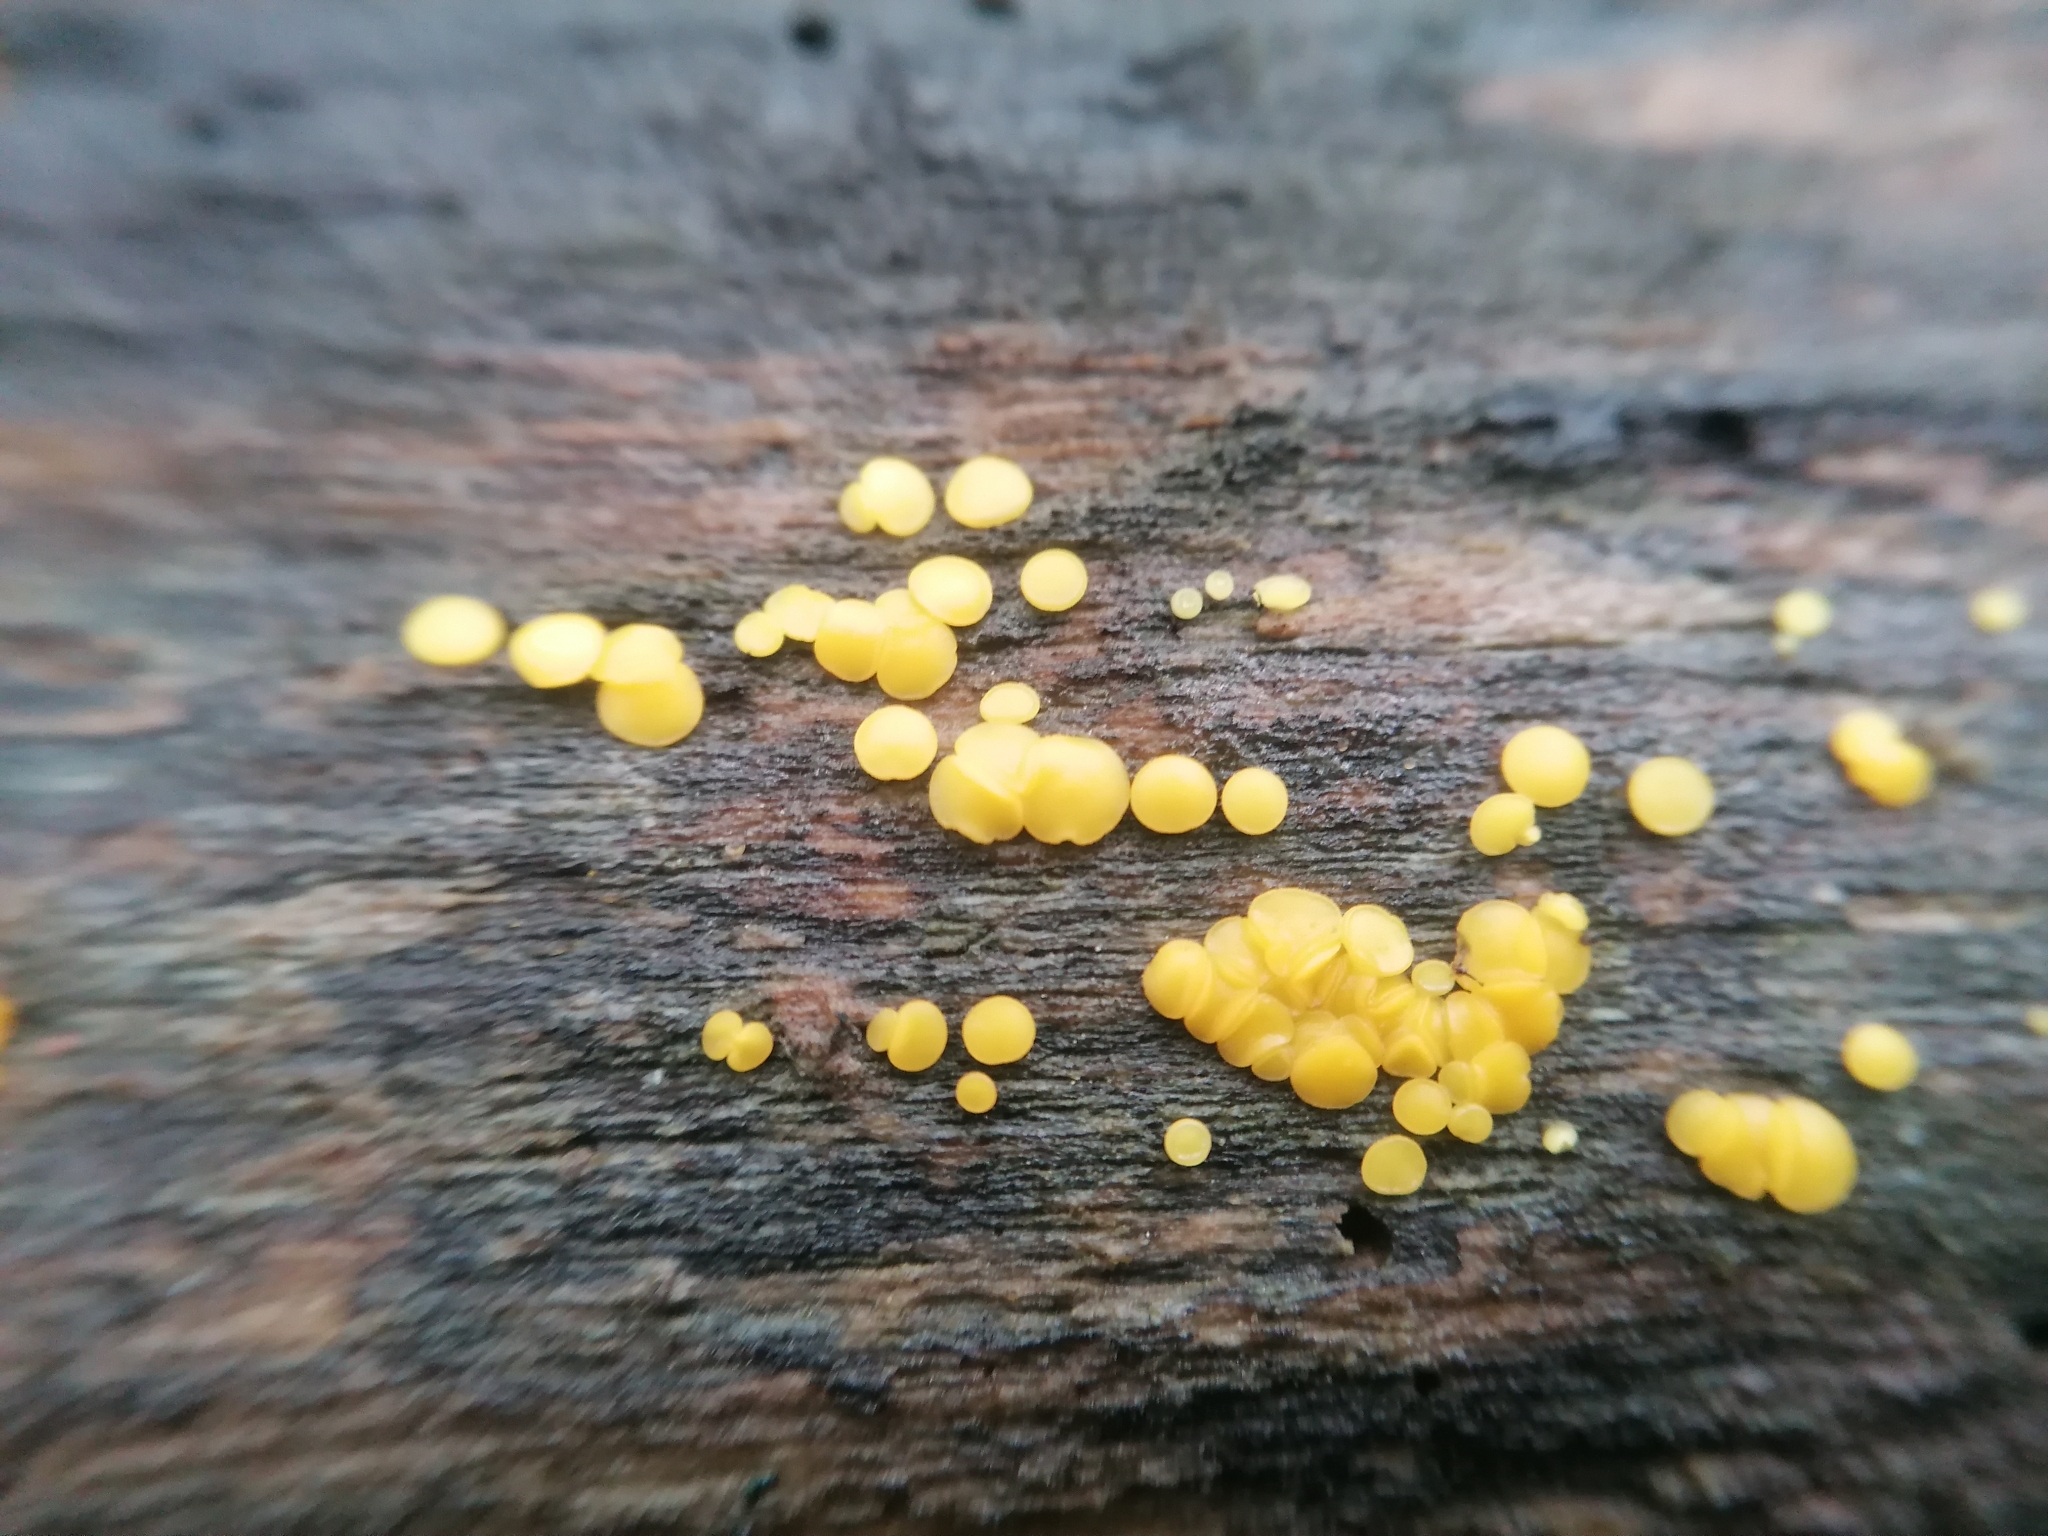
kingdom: Fungi
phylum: Ascomycota
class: Leotiomycetes
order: Helotiales
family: Pezizellaceae
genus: Calycina
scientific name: Calycina citrina
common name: Yellow fairy cups
